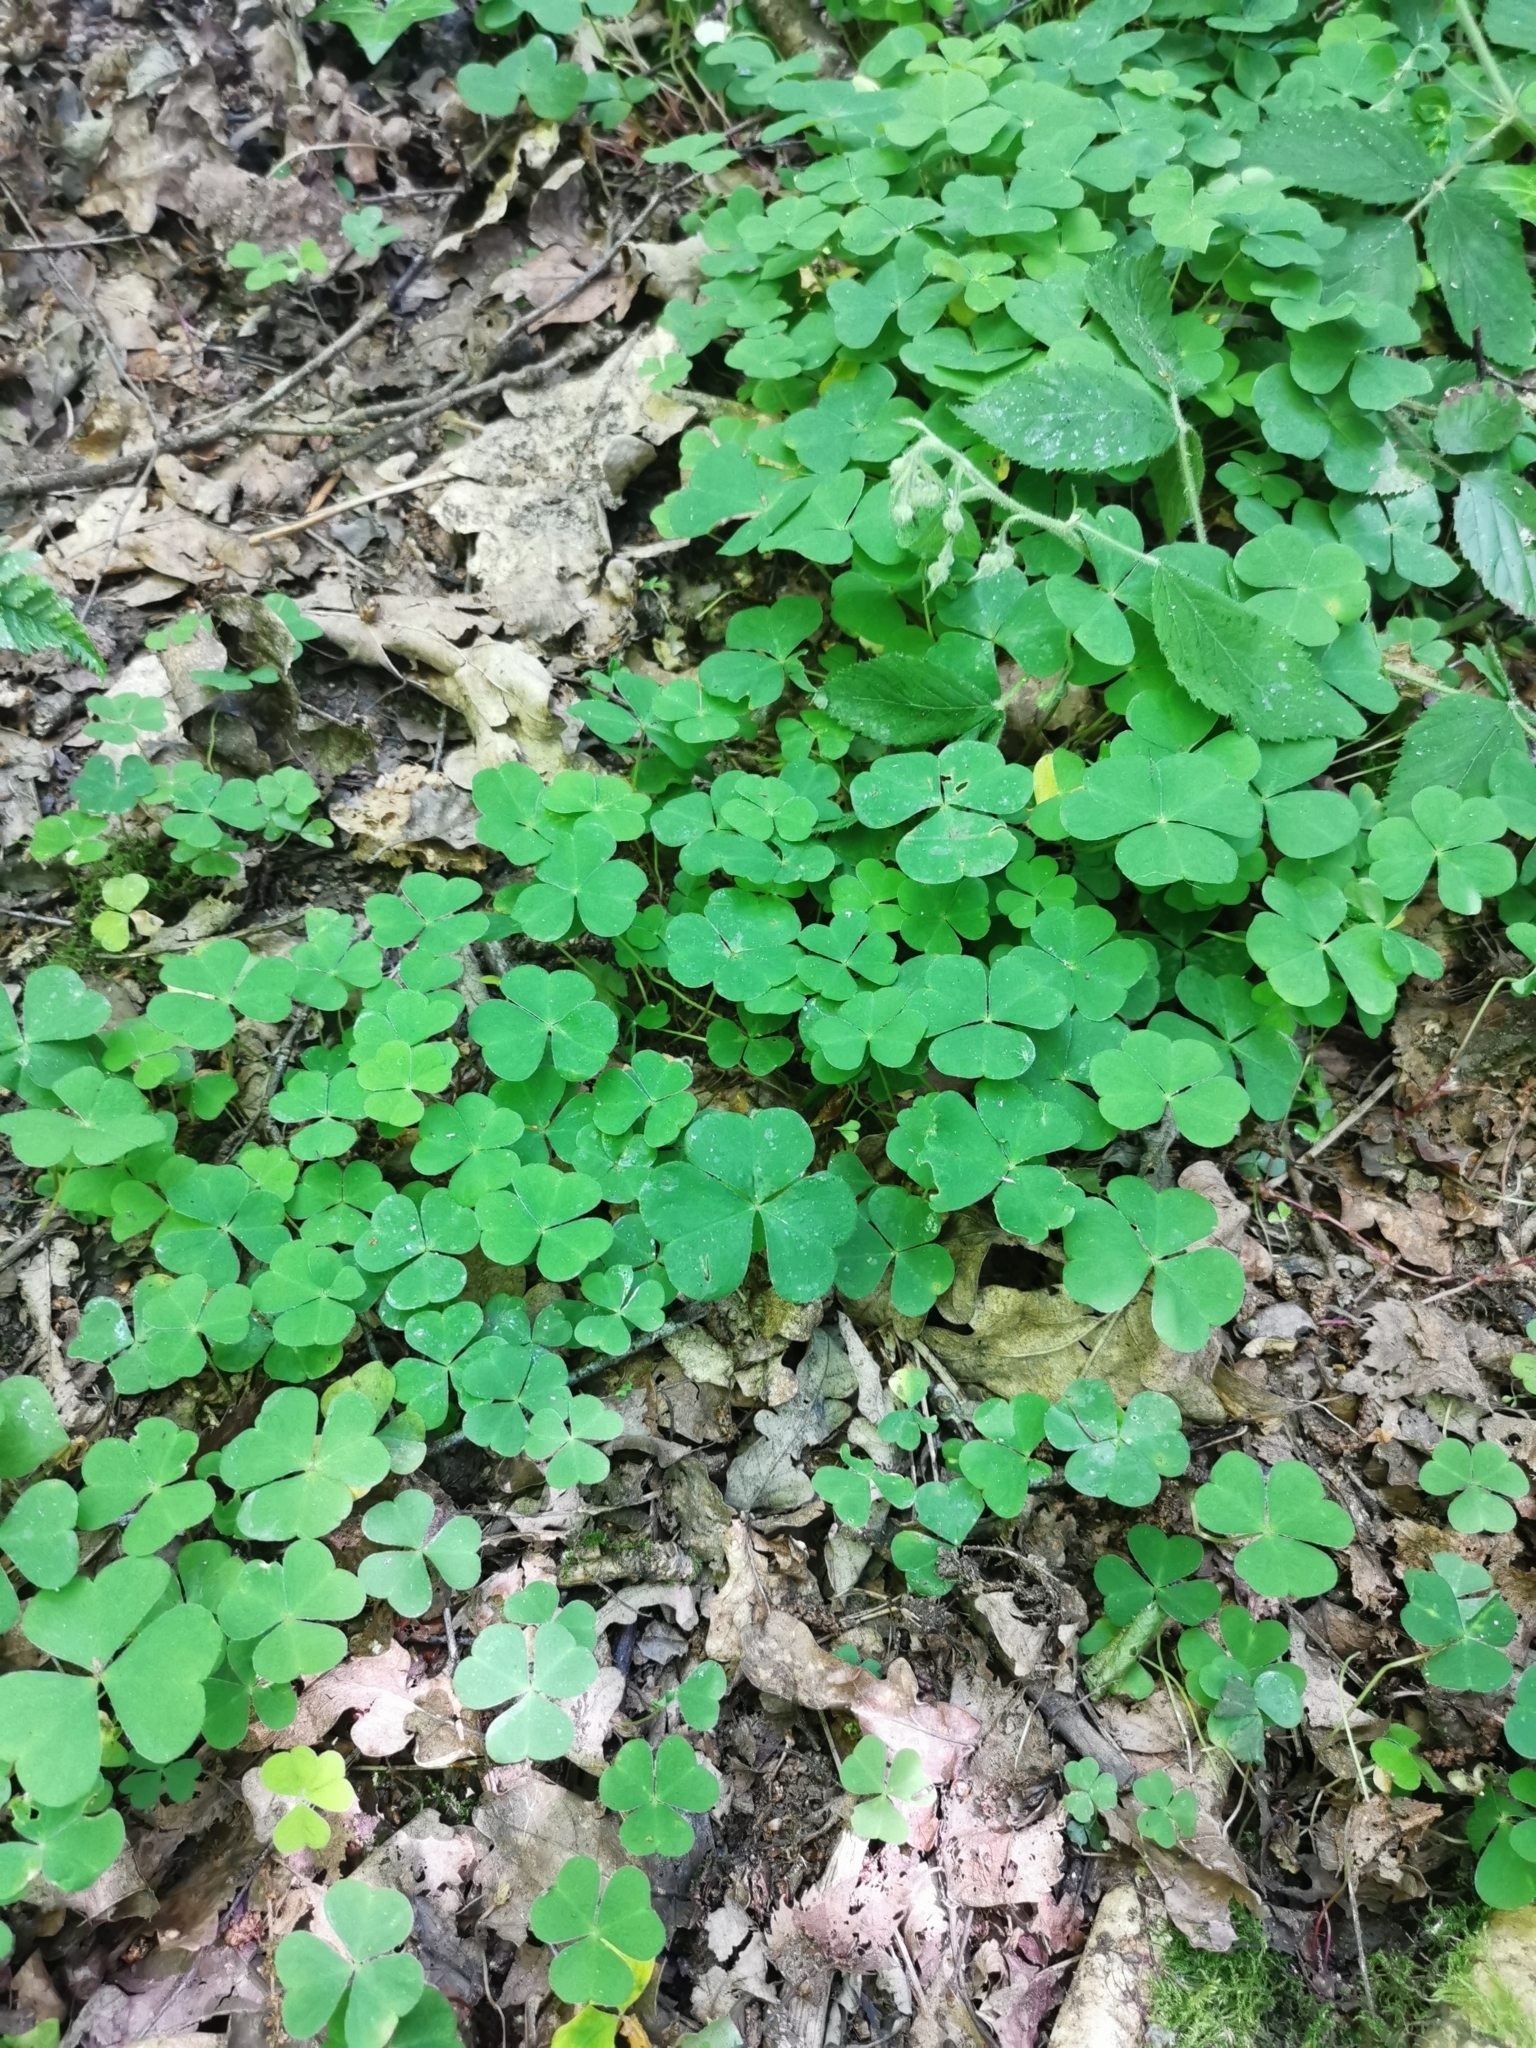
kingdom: Plantae
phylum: Tracheophyta
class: Magnoliopsida
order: Oxalidales
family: Oxalidaceae
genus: Oxalis
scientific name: Oxalis acetosella
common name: Wood-sorrel
